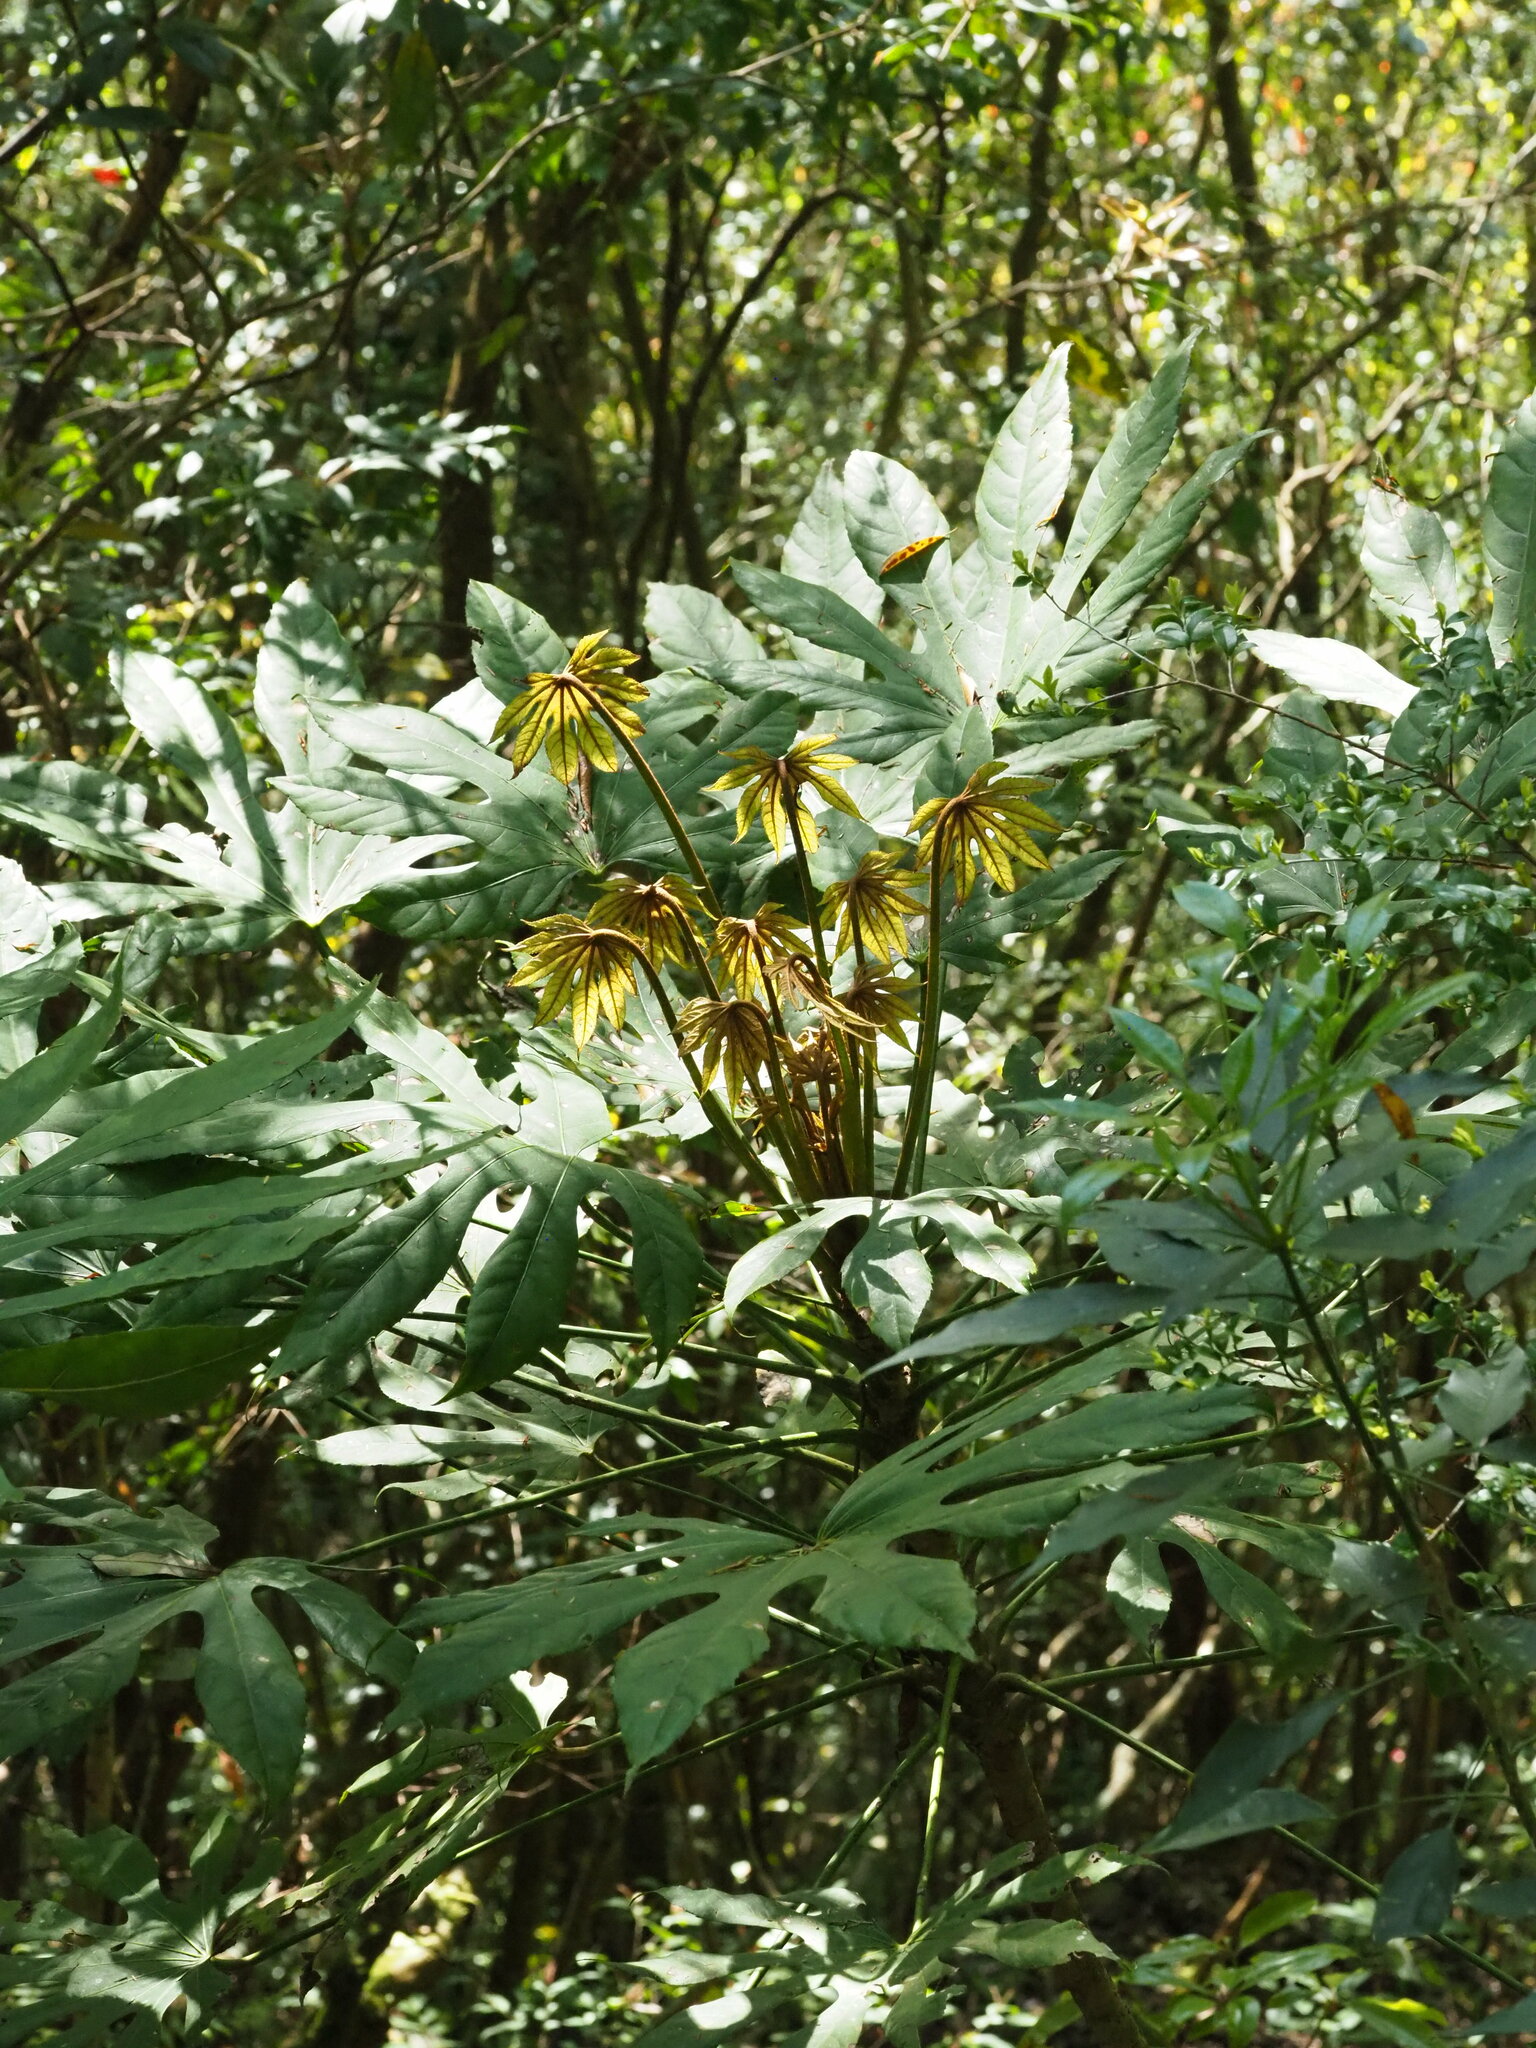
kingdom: Plantae
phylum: Tracheophyta
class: Magnoliopsida
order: Apiales
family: Araliaceae
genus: Fatsia
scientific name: Fatsia polycarpa
